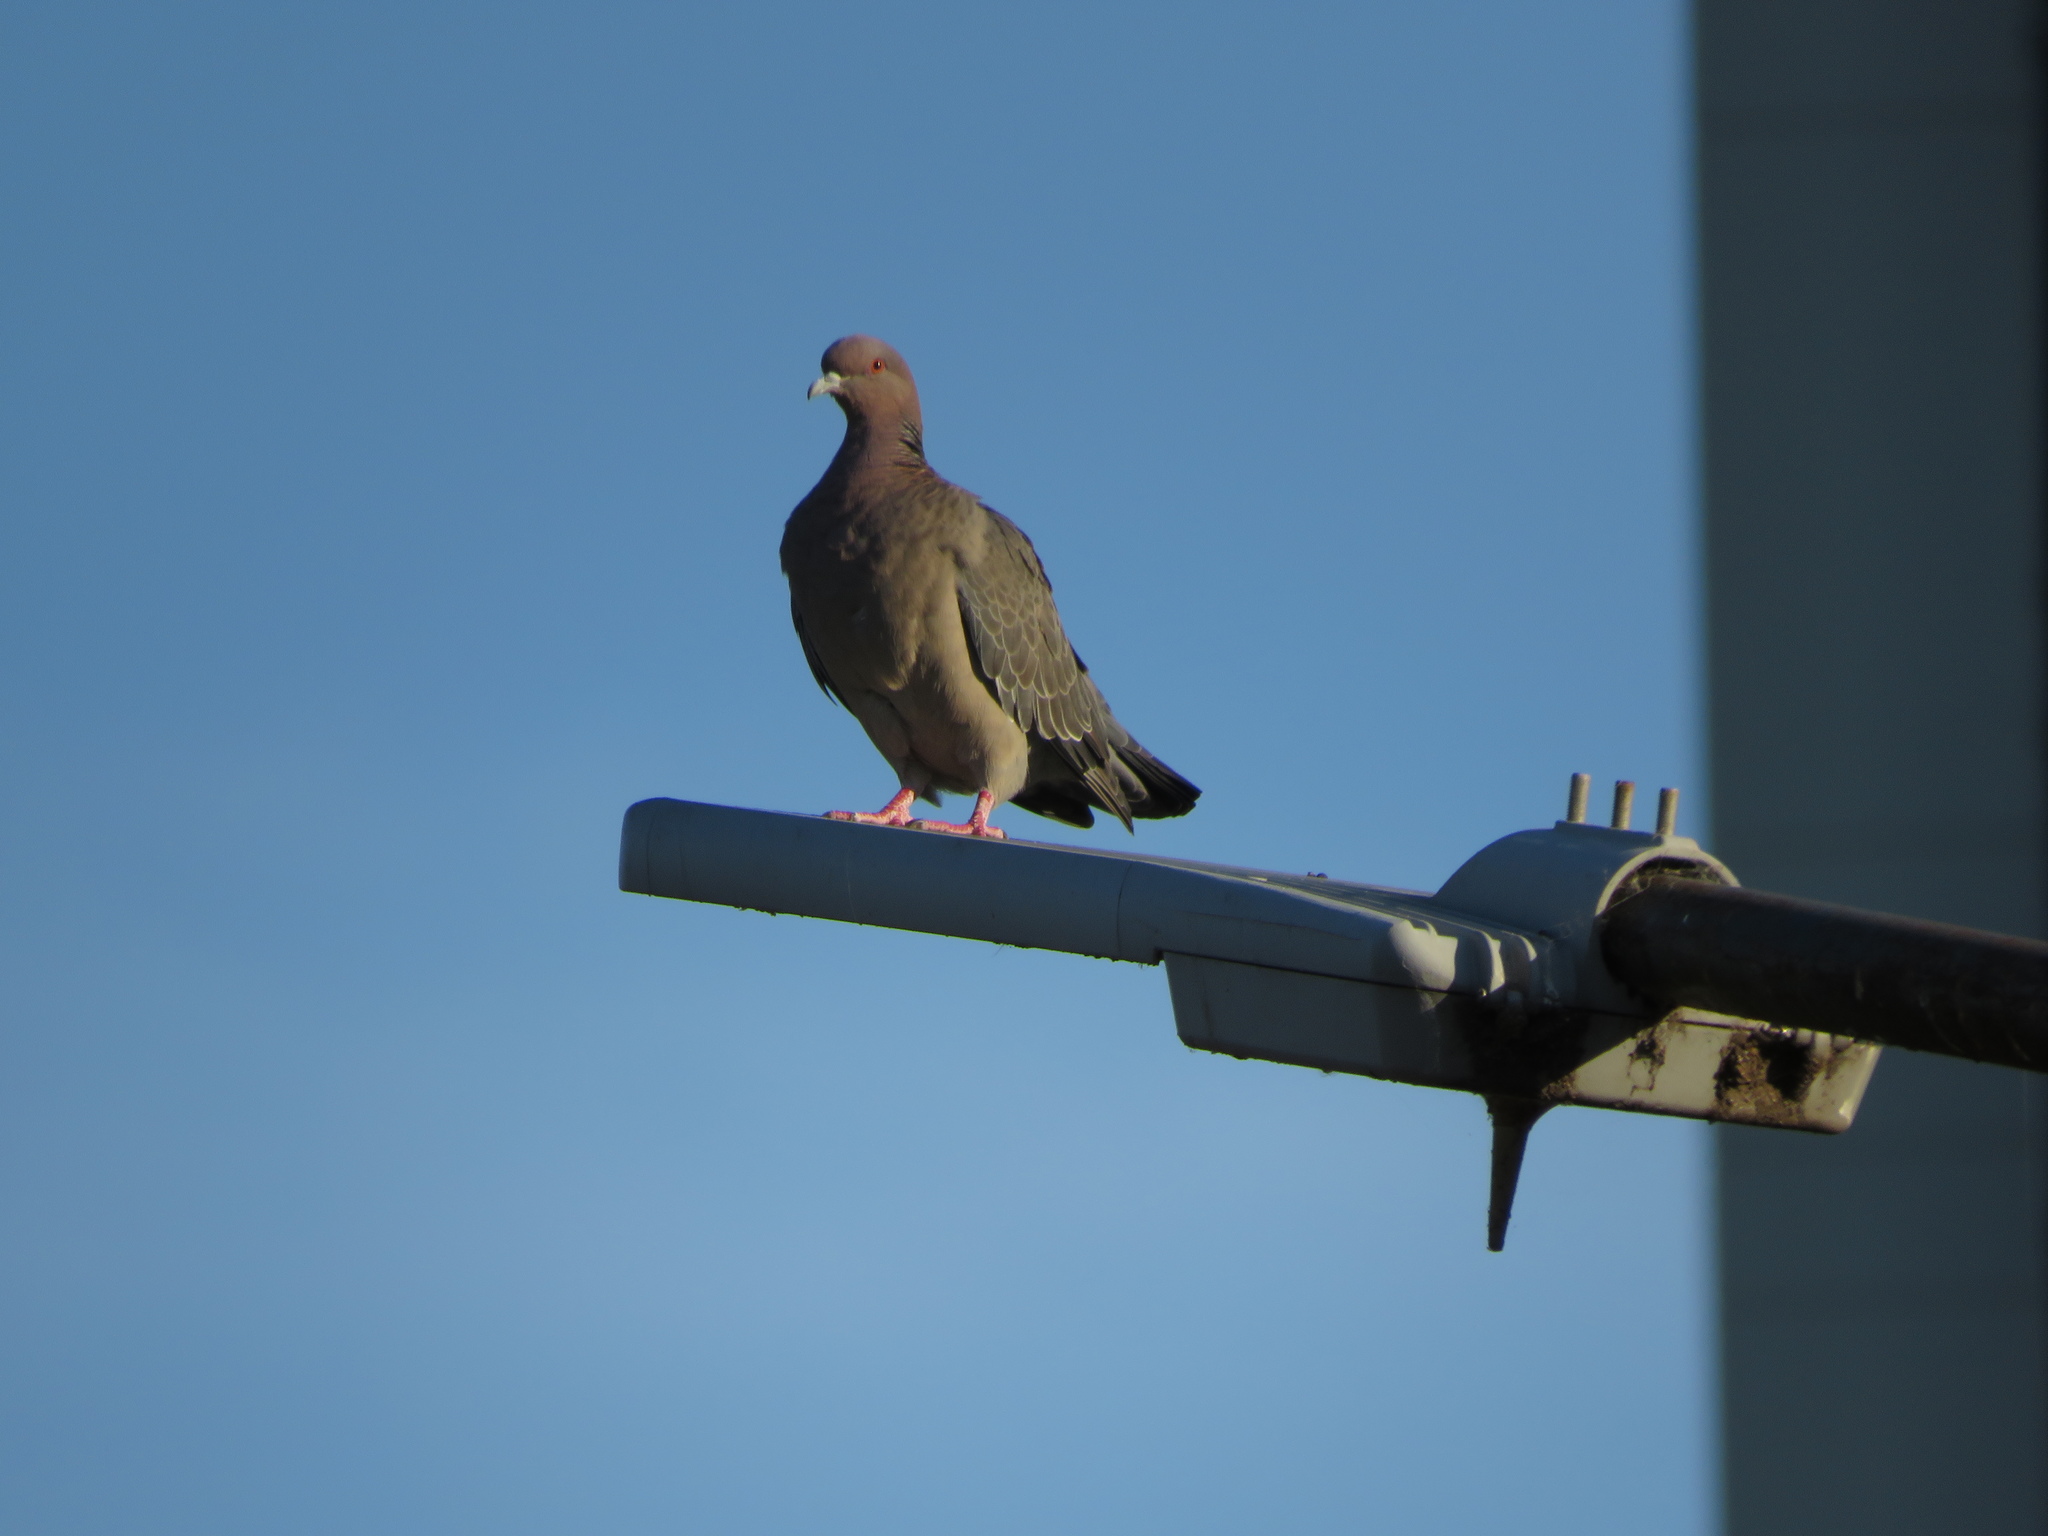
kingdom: Animalia
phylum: Chordata
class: Aves
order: Columbiformes
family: Columbidae
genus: Patagioenas
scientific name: Patagioenas picazuro
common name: Picazuro pigeon
